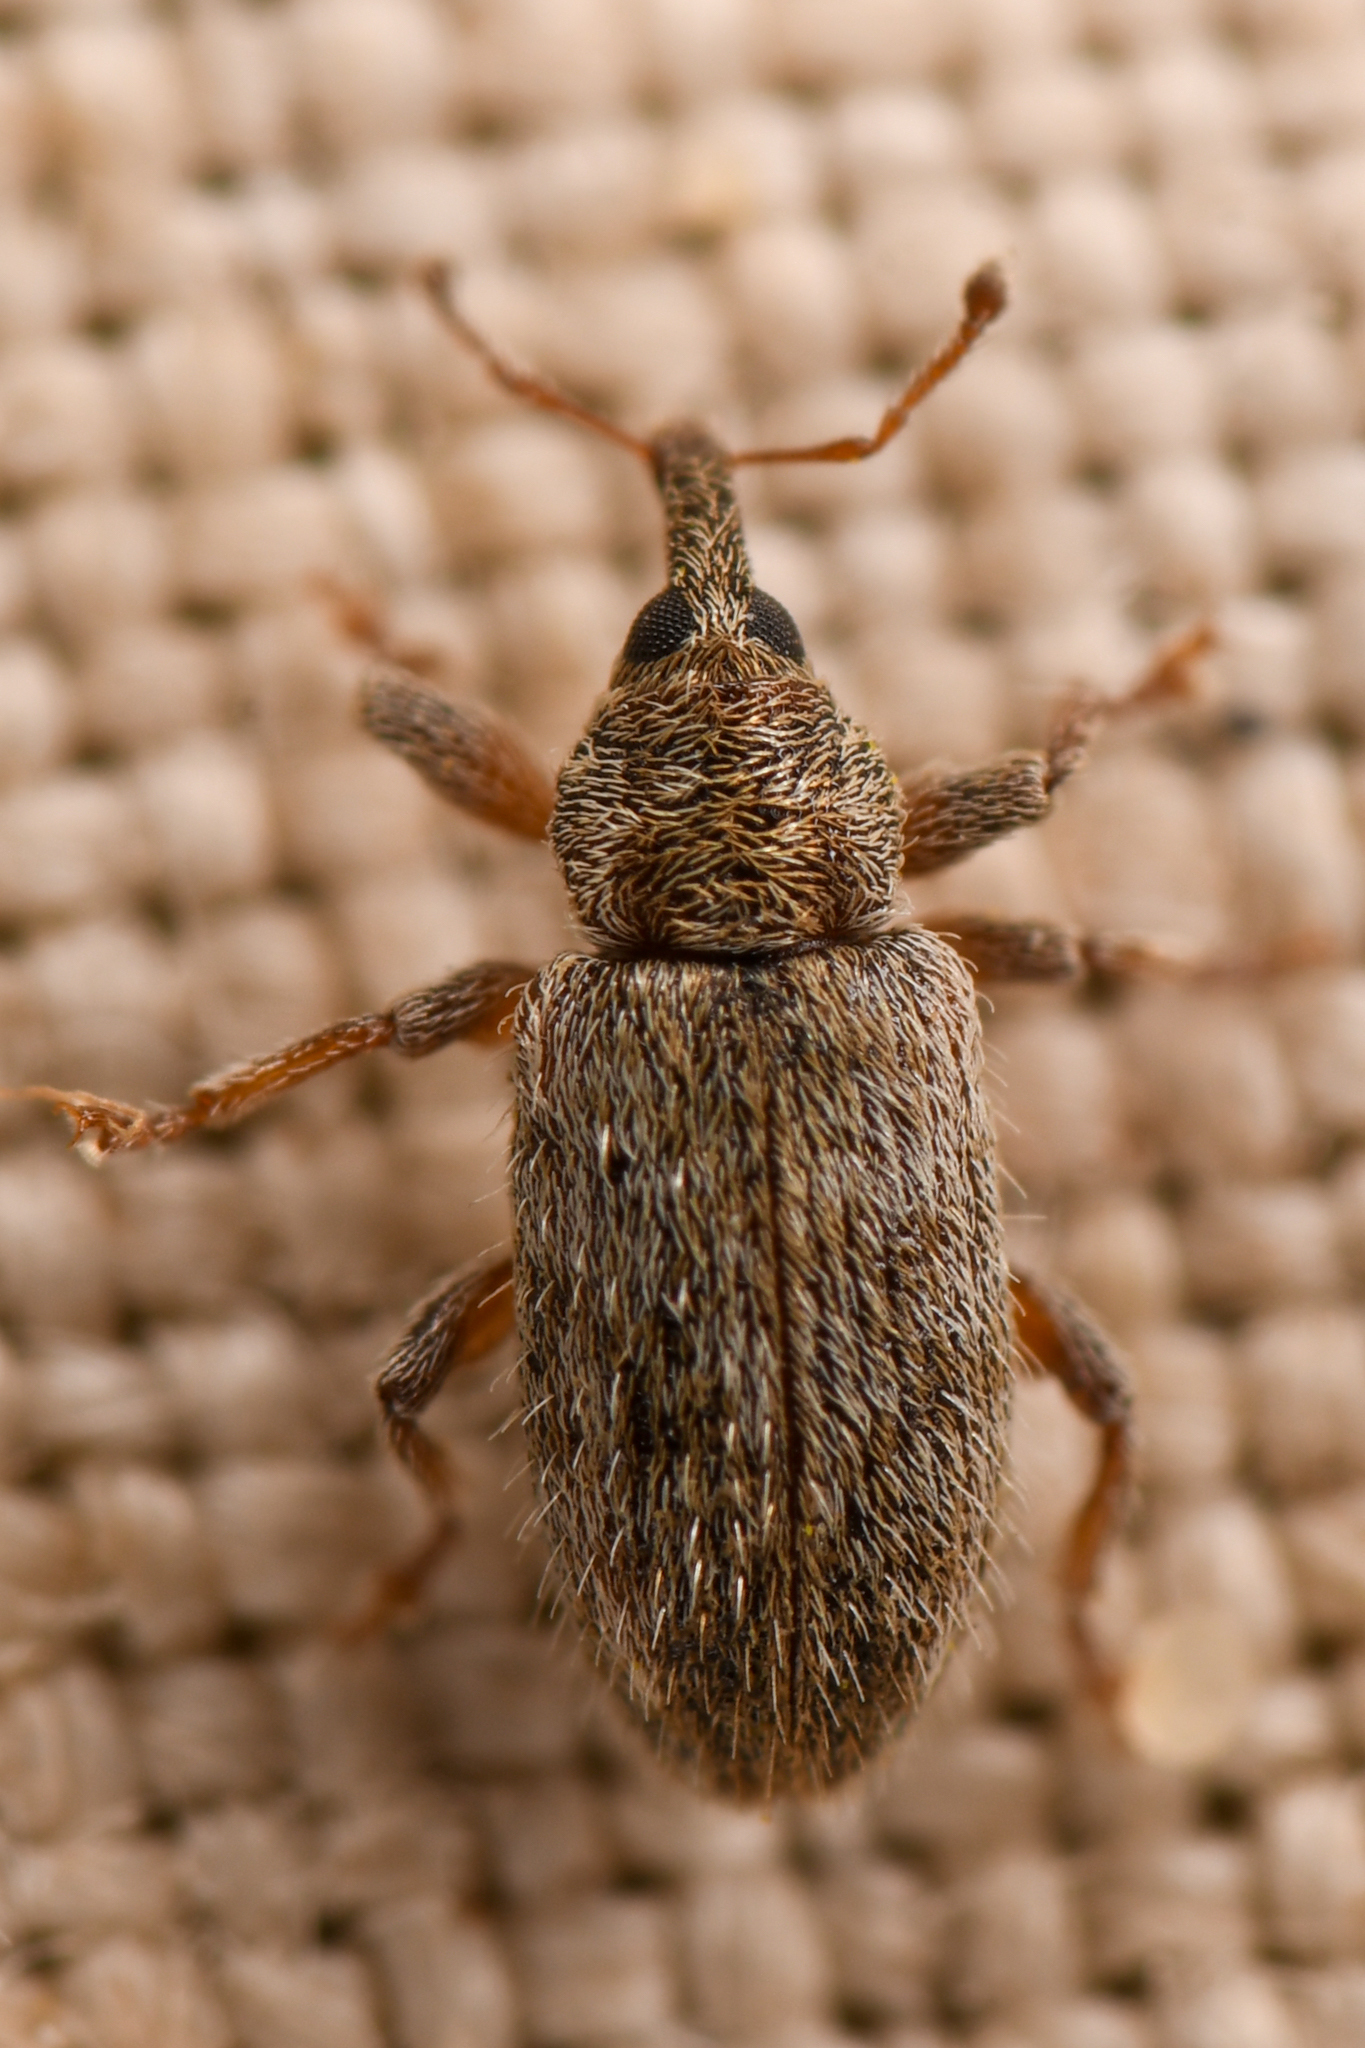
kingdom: Animalia
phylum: Arthropoda
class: Insecta
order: Coleoptera
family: Curculionidae
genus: Dorytomus
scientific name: Dorytomus hystricula
